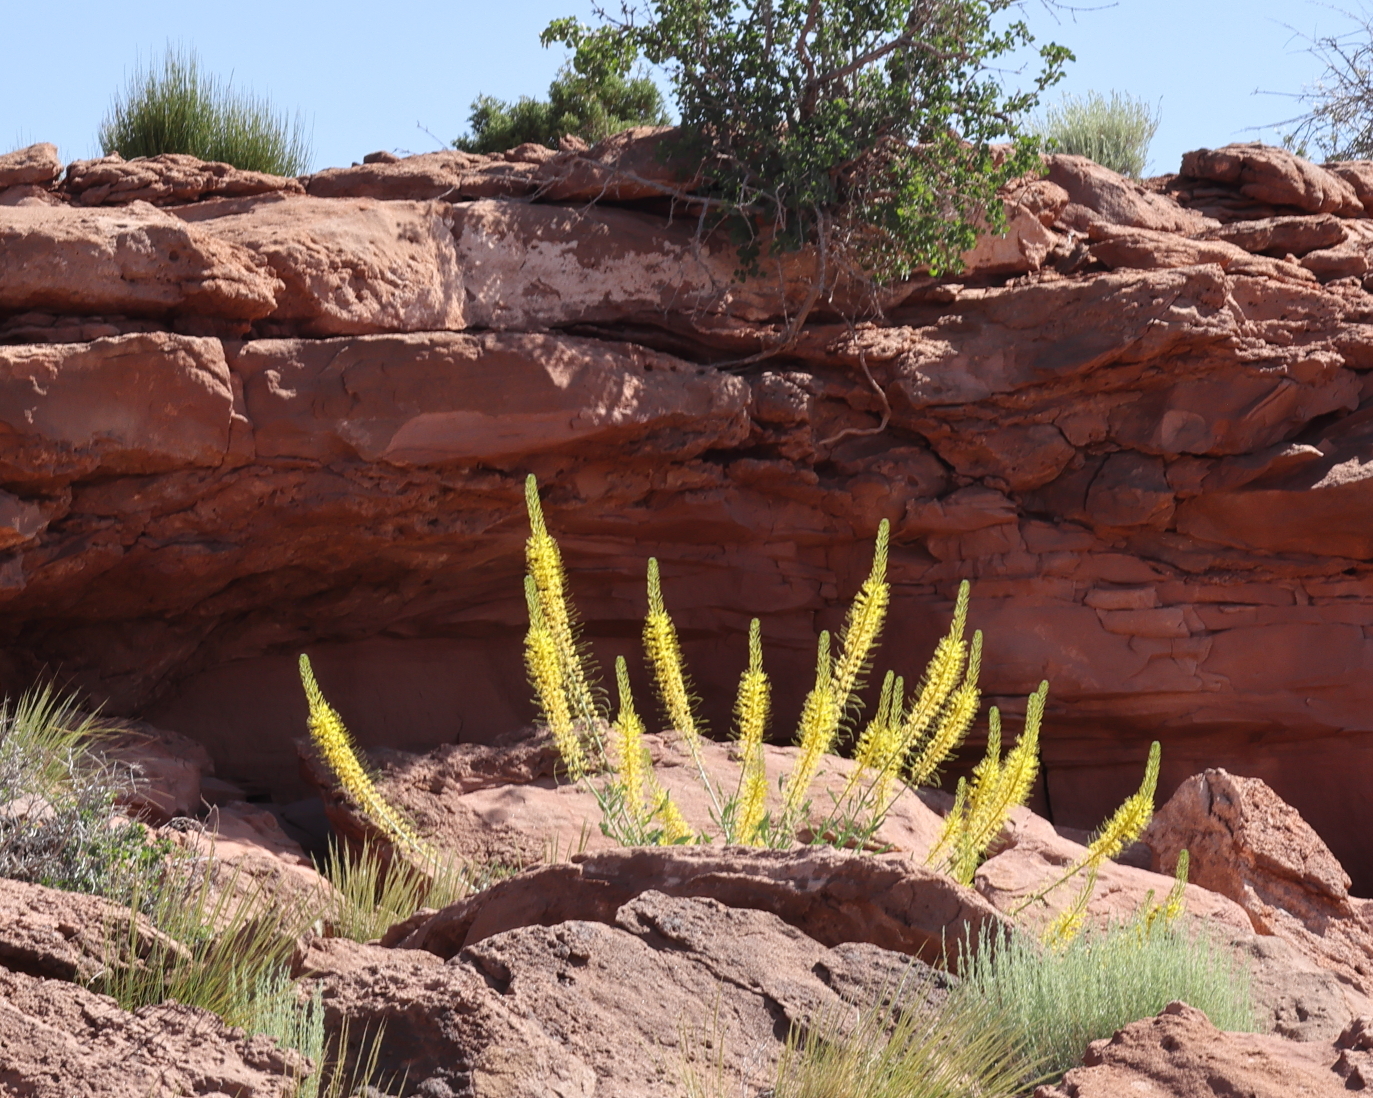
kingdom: Plantae
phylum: Tracheophyta
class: Magnoliopsida
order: Brassicales
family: Brassicaceae
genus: Stanleya
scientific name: Stanleya pinnata
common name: Prince's-plume
